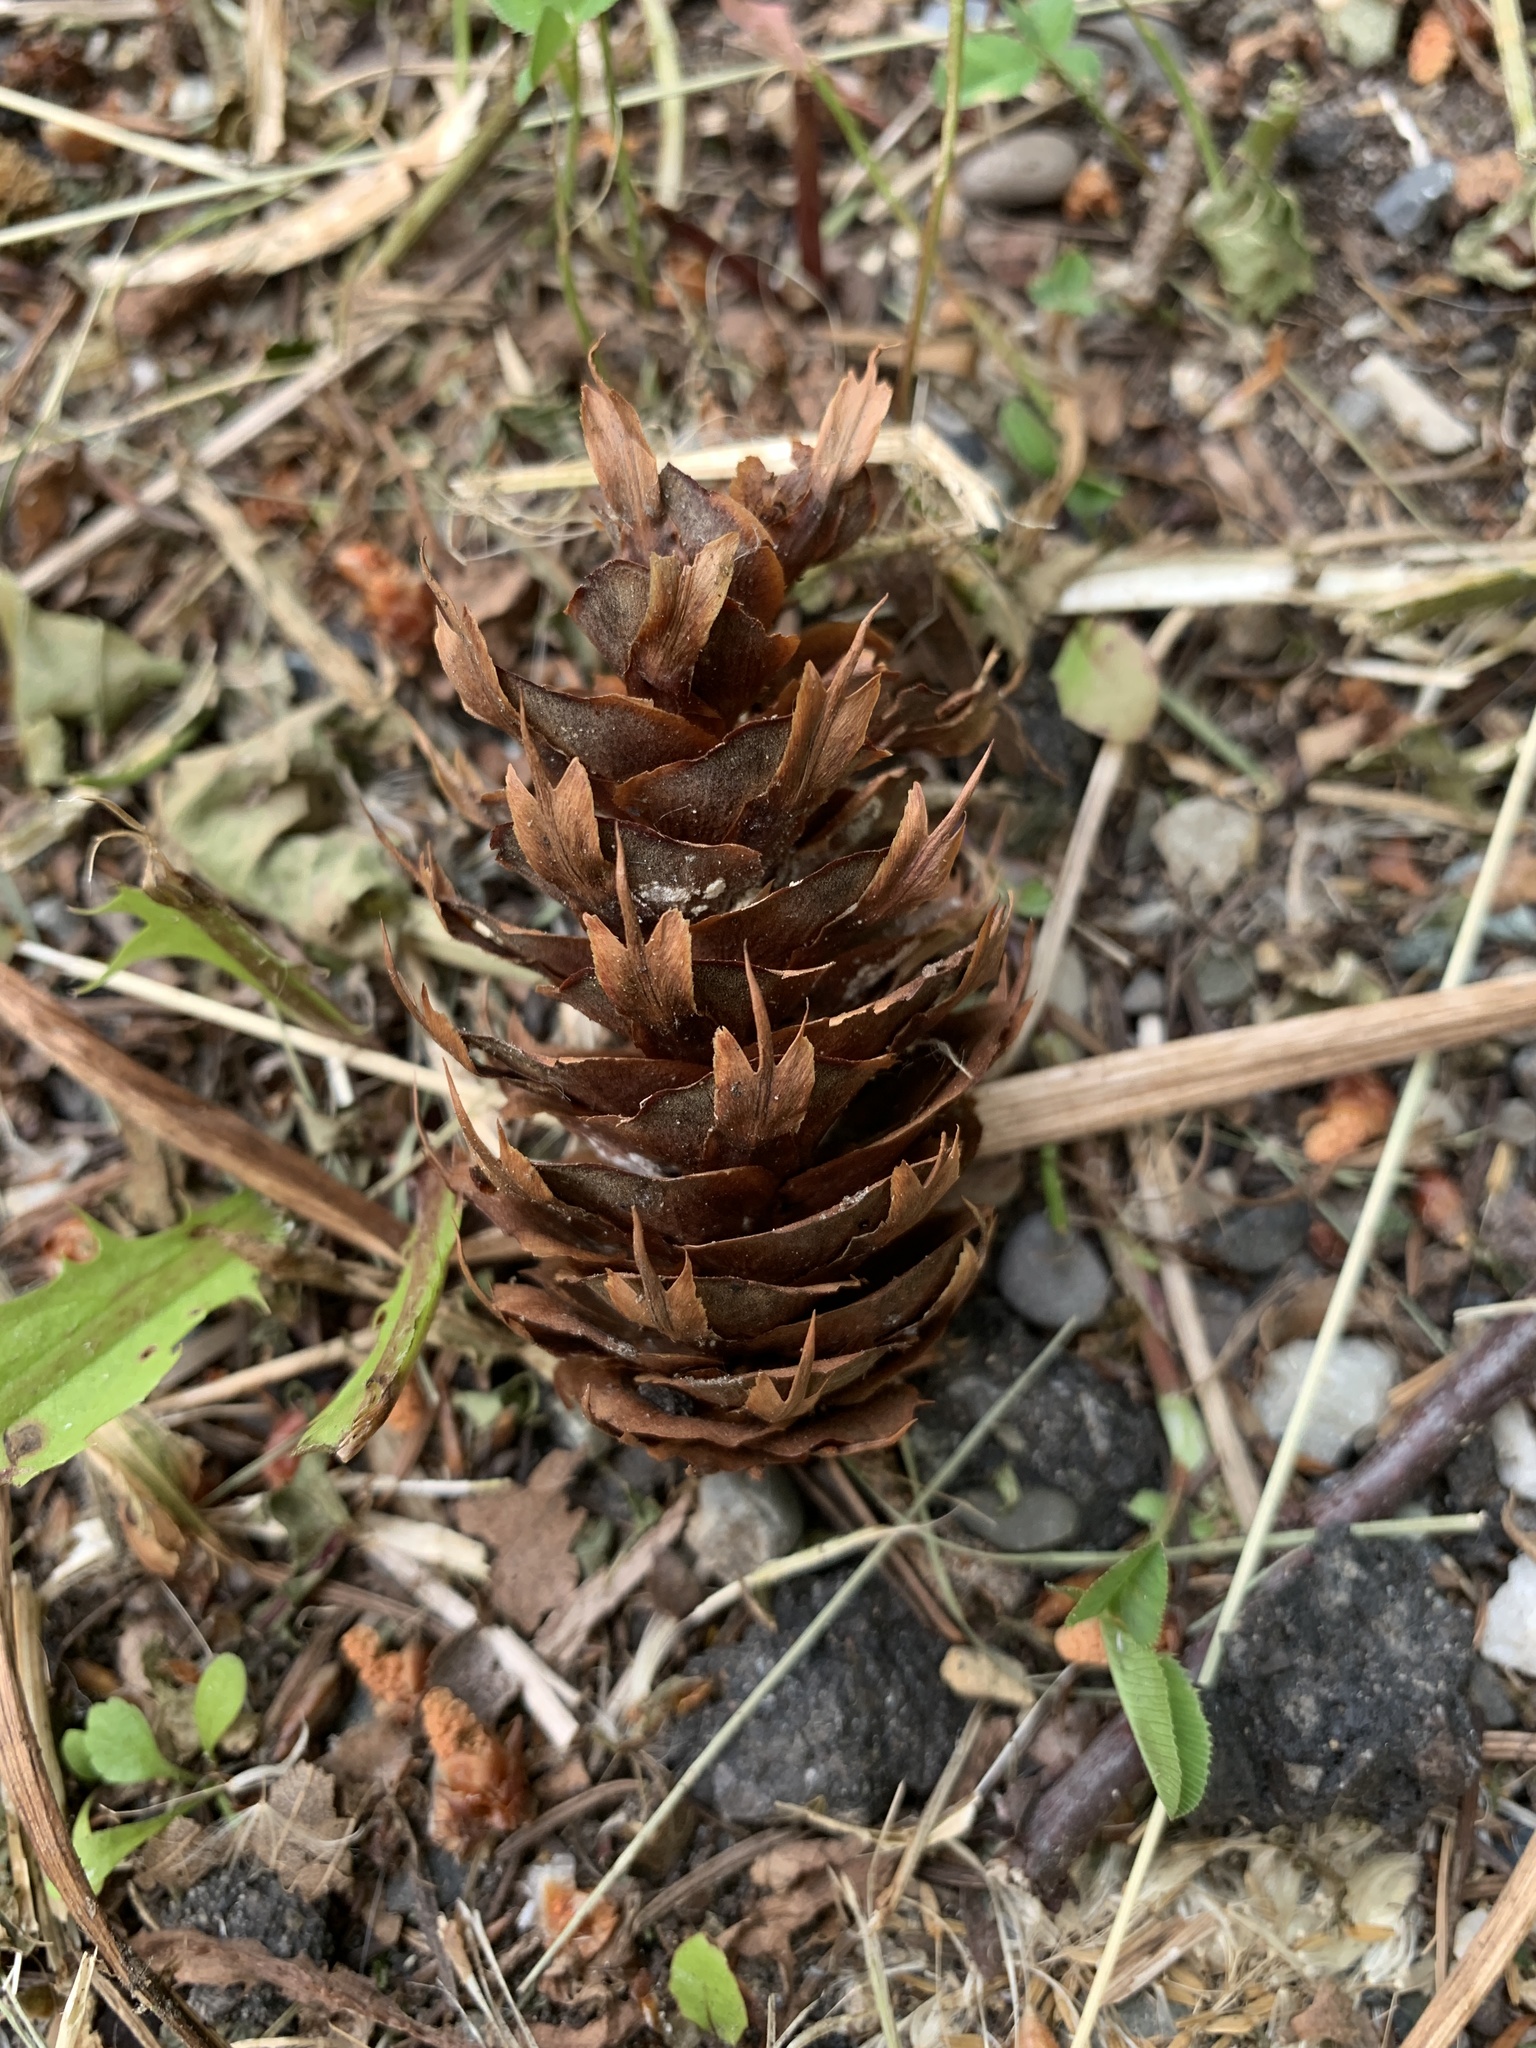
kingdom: Plantae
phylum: Tracheophyta
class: Pinopsida
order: Pinales
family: Pinaceae
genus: Pseudotsuga
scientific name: Pseudotsuga menziesii
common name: Douglas fir
